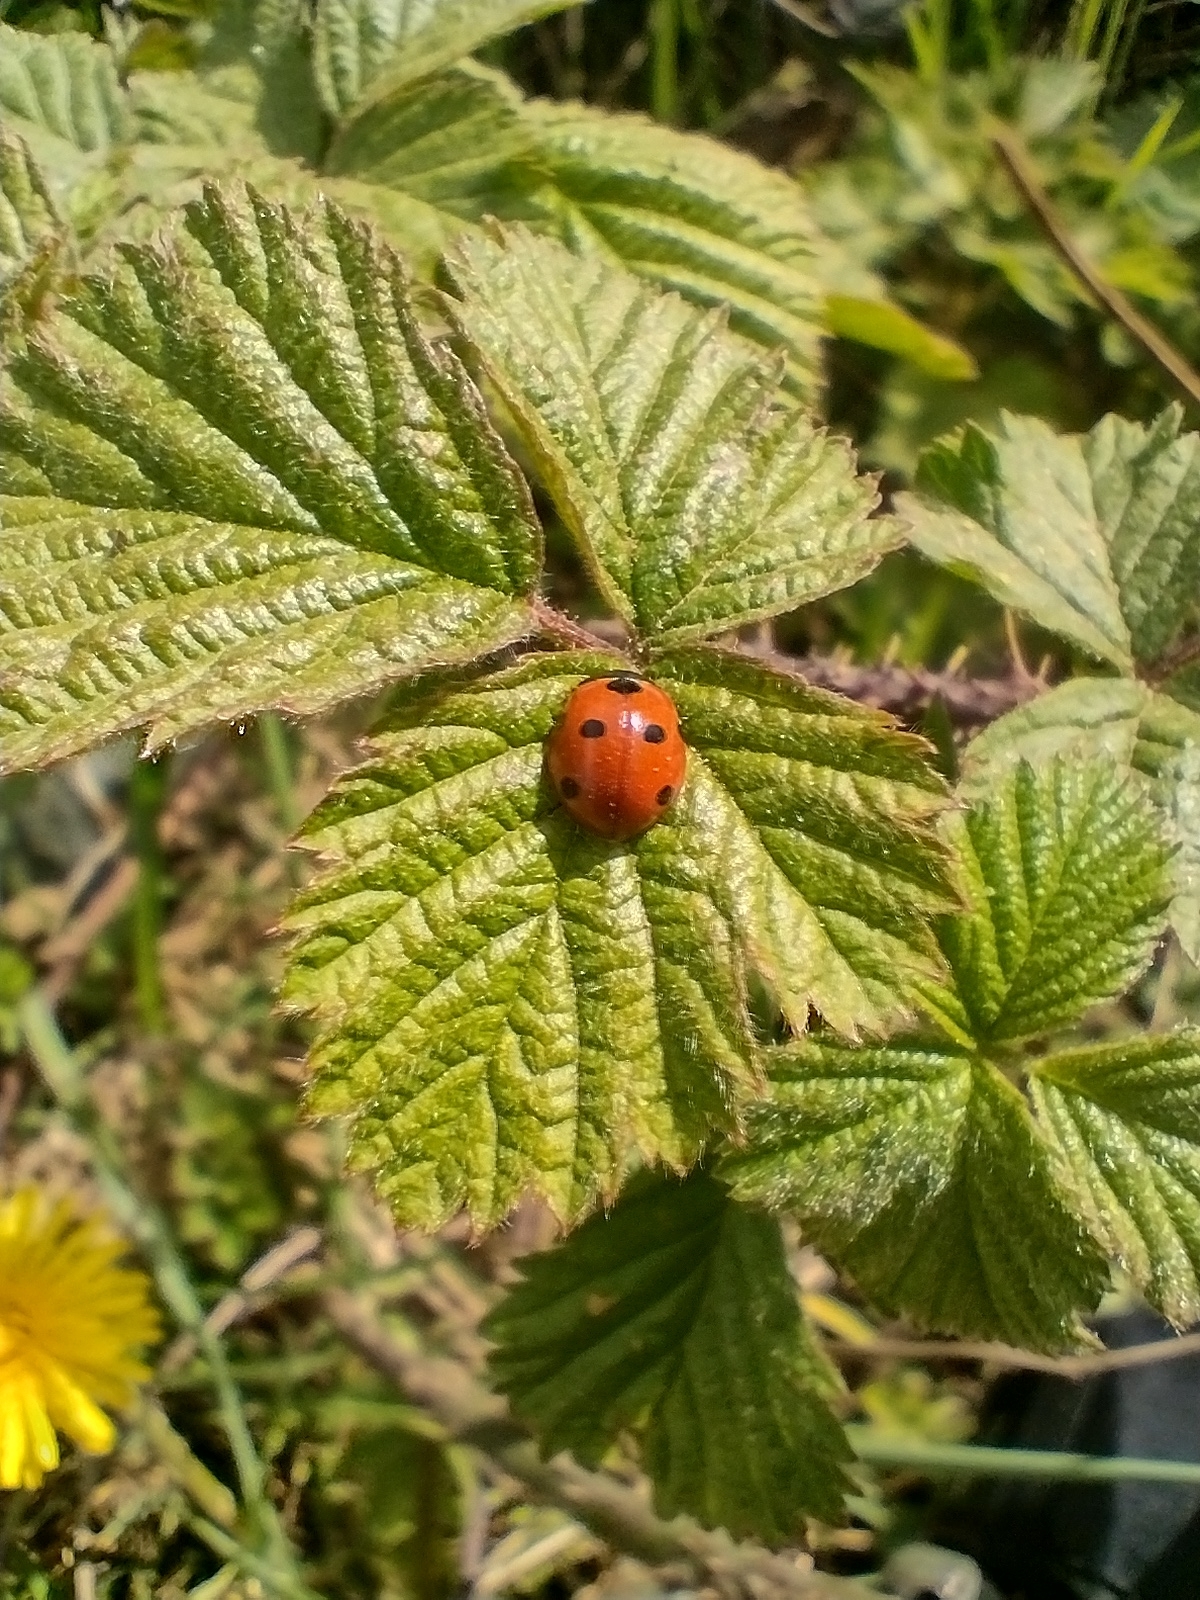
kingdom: Animalia
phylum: Arthropoda
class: Insecta
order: Coleoptera
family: Coccinellidae
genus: Coccinella
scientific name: Coccinella septempunctata
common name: Sevenspotted lady beetle
